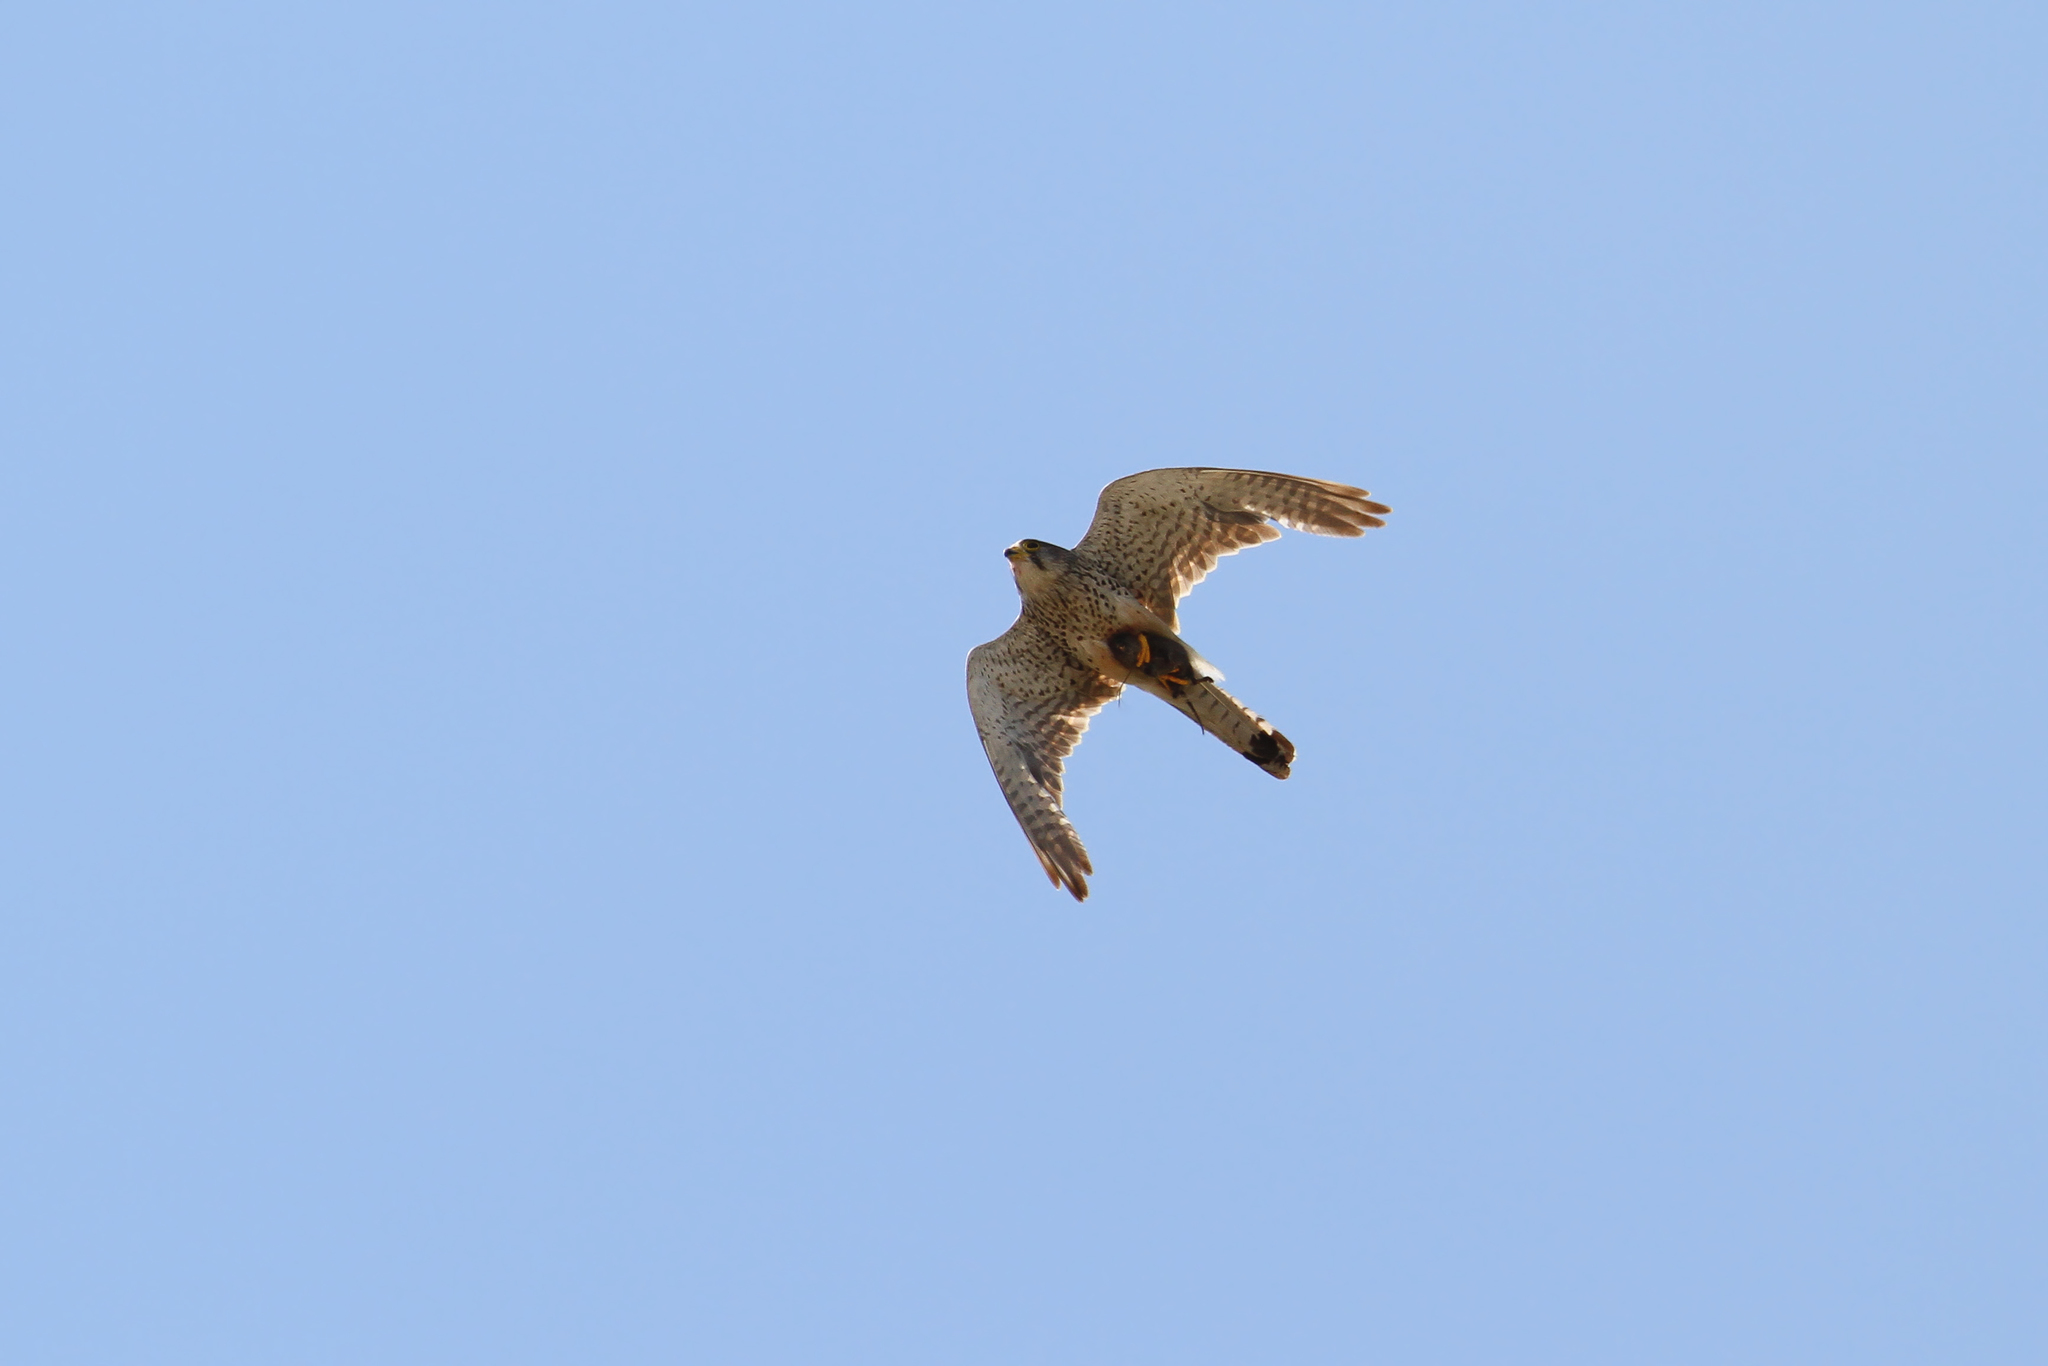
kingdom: Animalia
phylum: Chordata
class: Aves
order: Falconiformes
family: Falconidae
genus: Falco
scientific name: Falco tinnunculus
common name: Common kestrel
